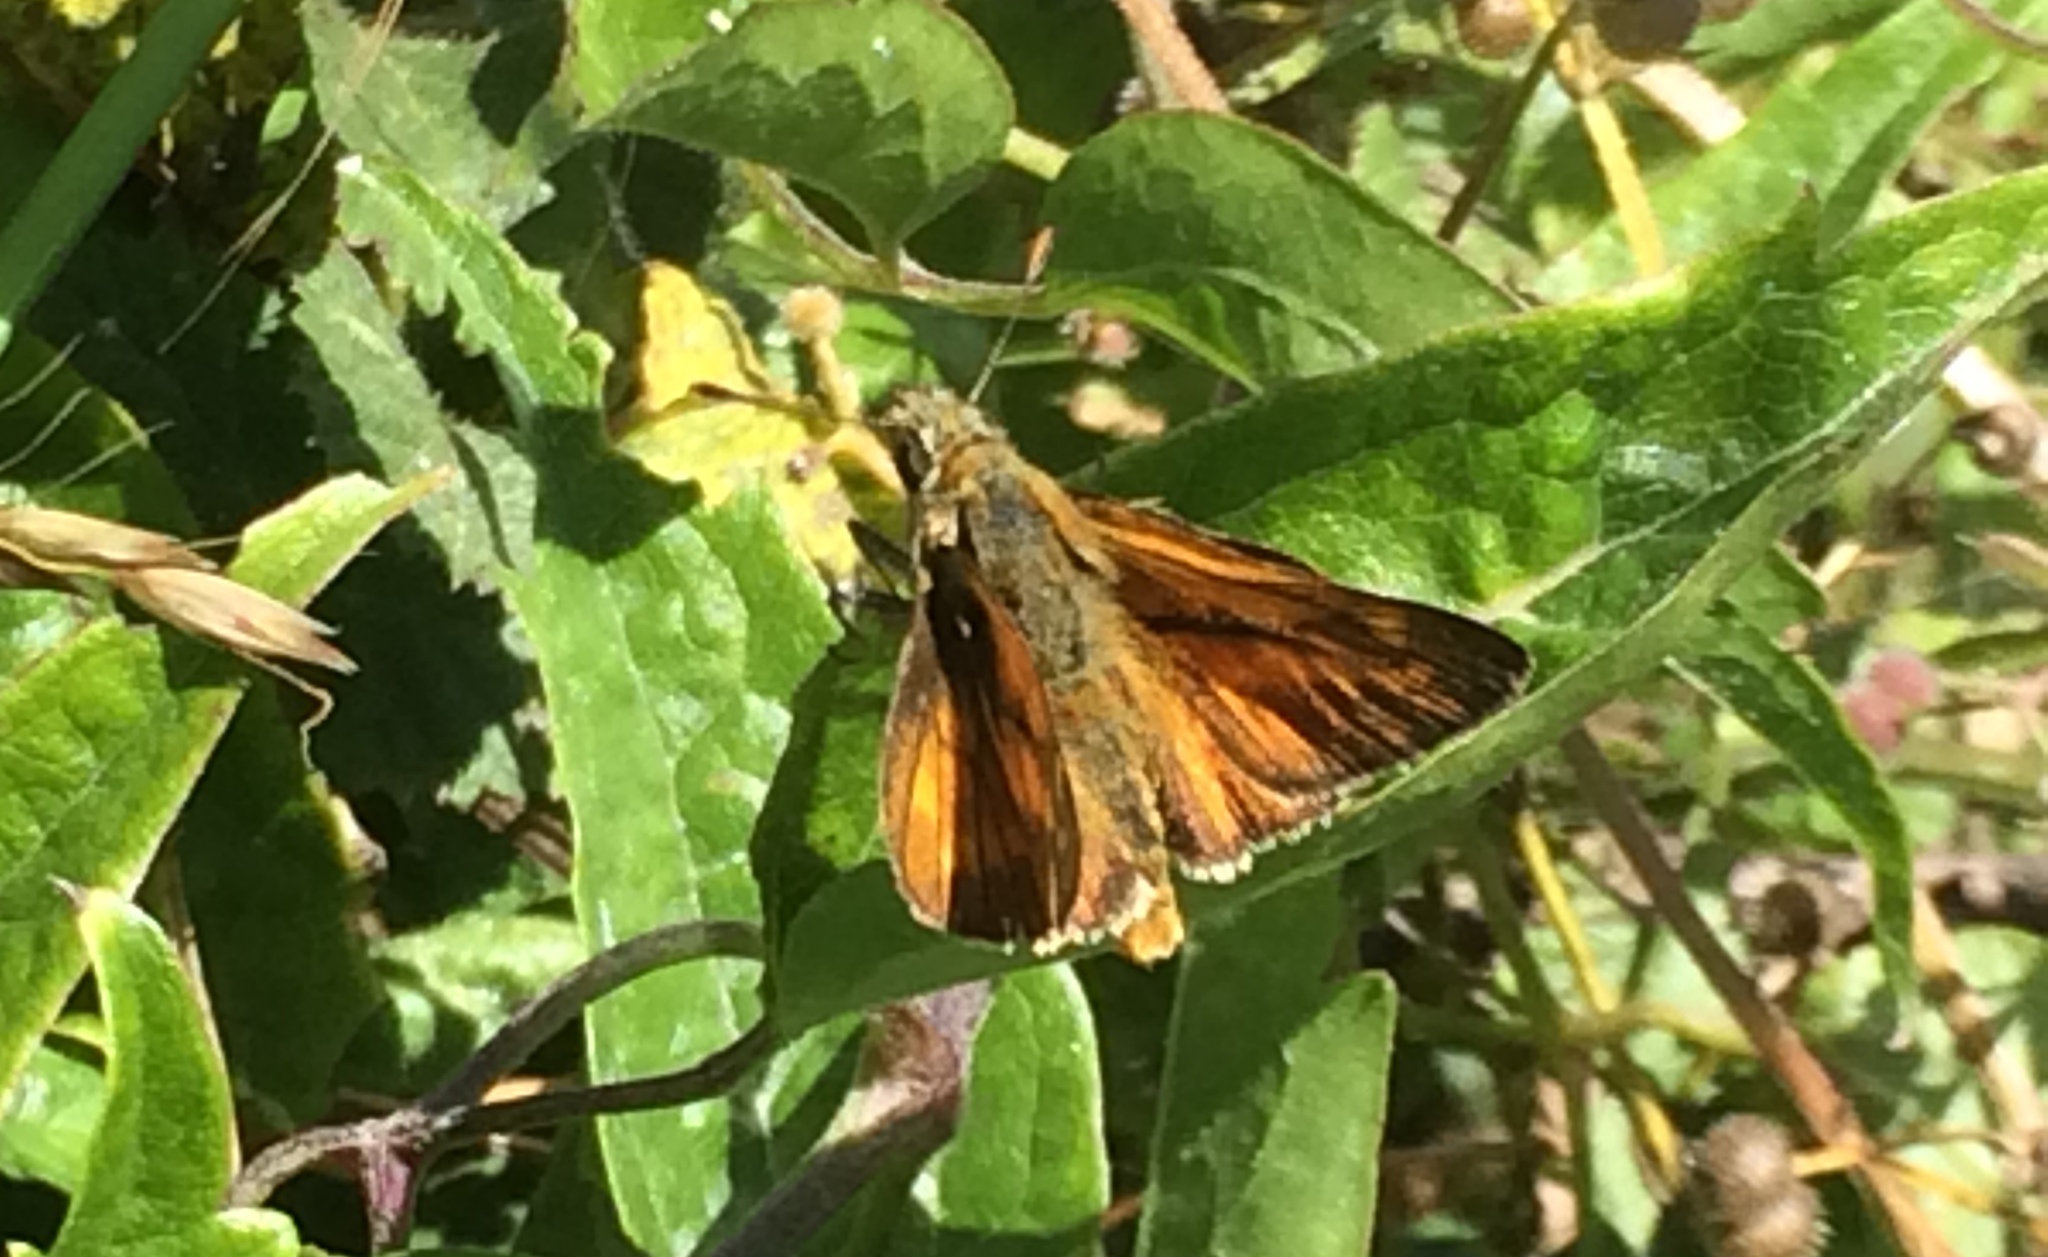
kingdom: Animalia
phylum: Arthropoda
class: Insecta
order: Lepidoptera
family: Hesperiidae
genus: Ochlodes
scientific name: Ochlodes venata
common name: Large skipper
